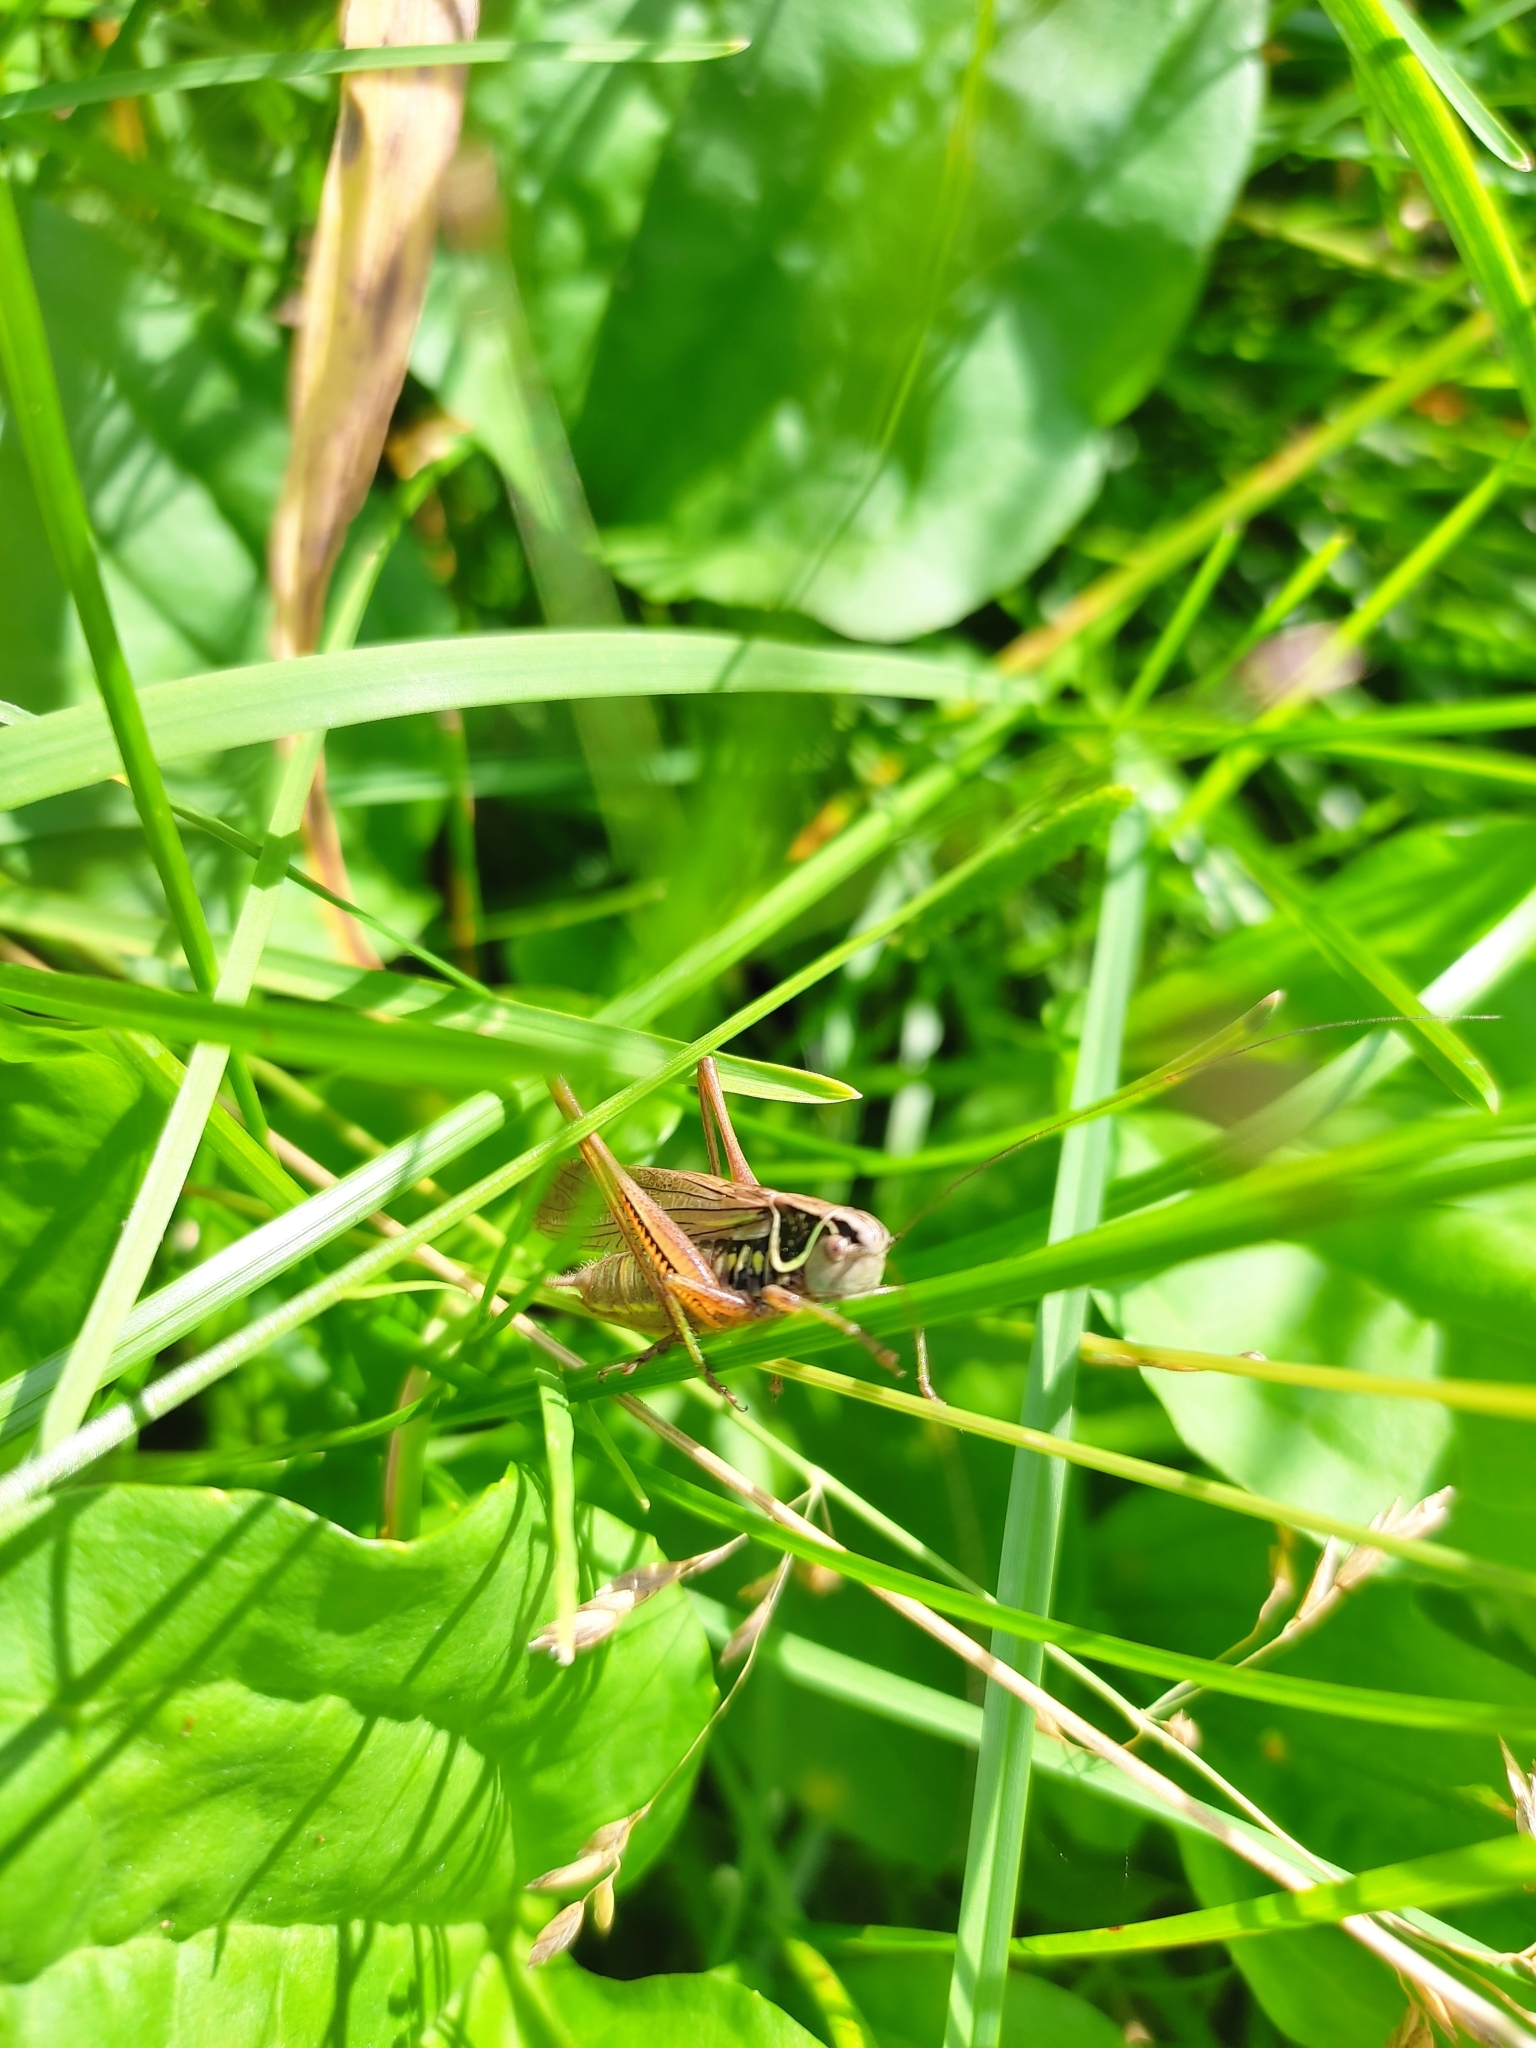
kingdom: Animalia
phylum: Arthropoda
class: Insecta
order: Orthoptera
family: Tettigoniidae
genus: Roeseliana
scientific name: Roeseliana roeselii
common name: Roesel's bush cricket
